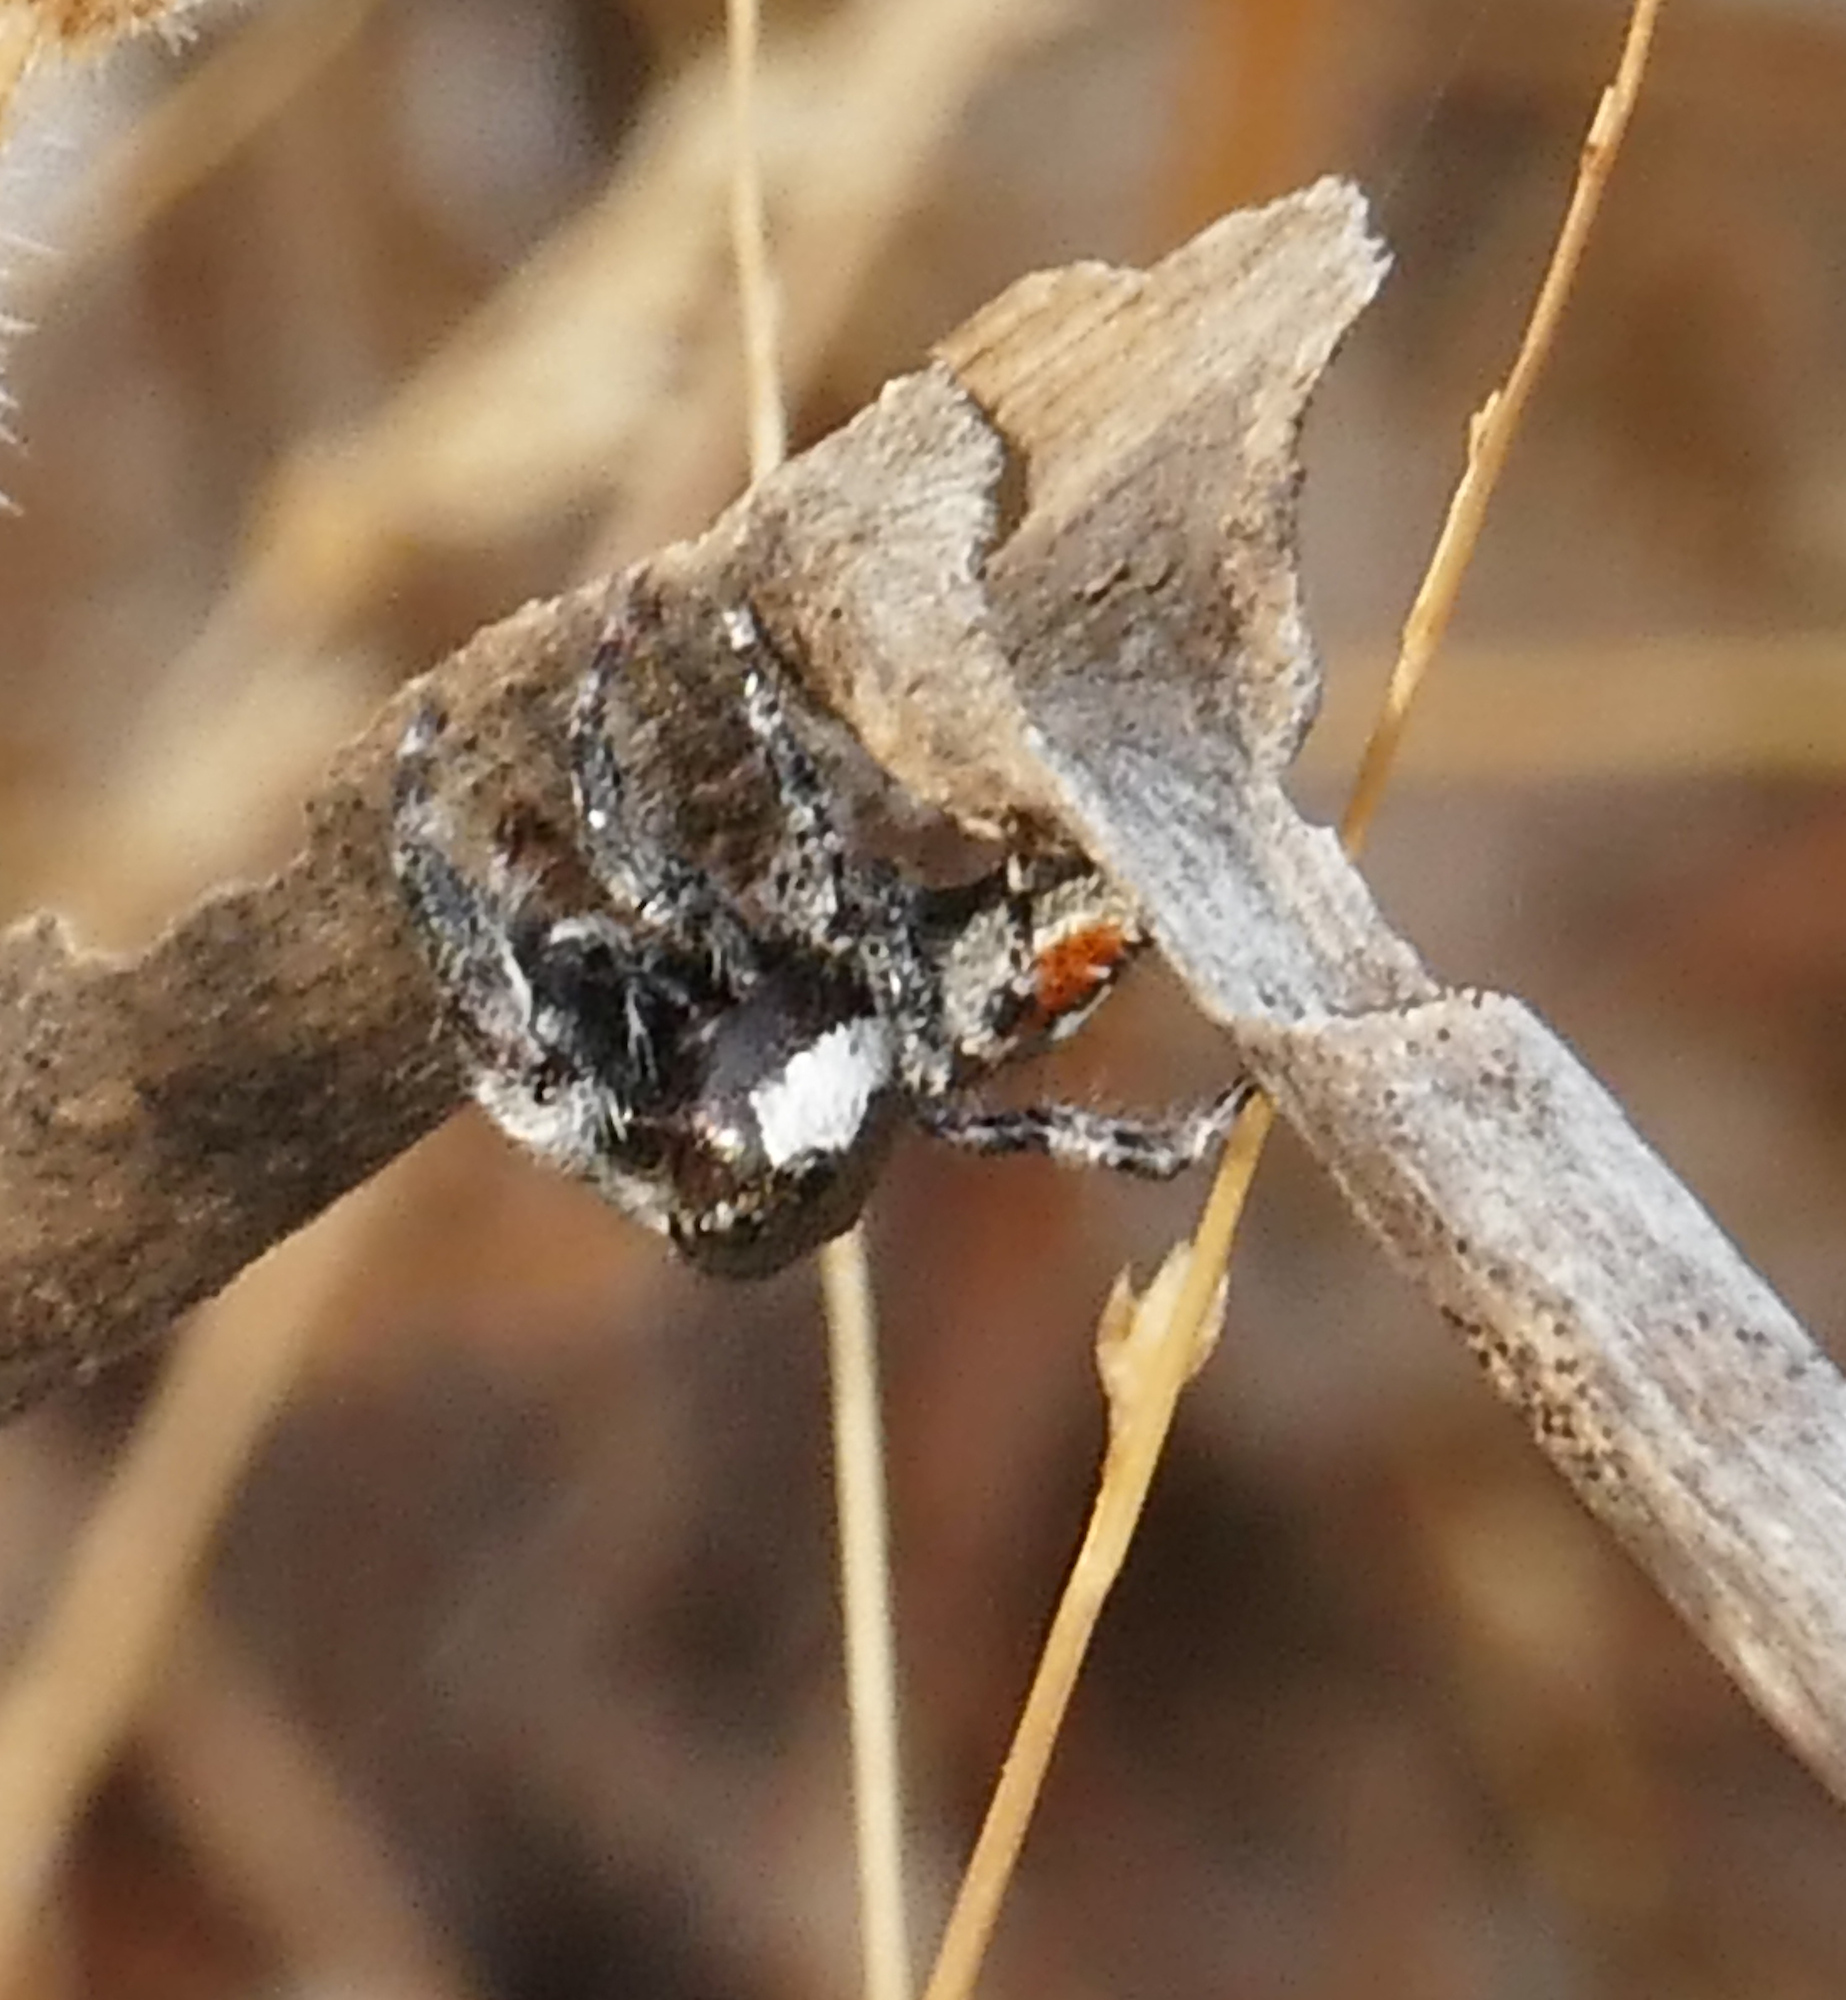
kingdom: Animalia
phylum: Arthropoda
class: Arachnida
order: Araneae
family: Salticidae
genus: Phidippus
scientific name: Phidippus californicus
